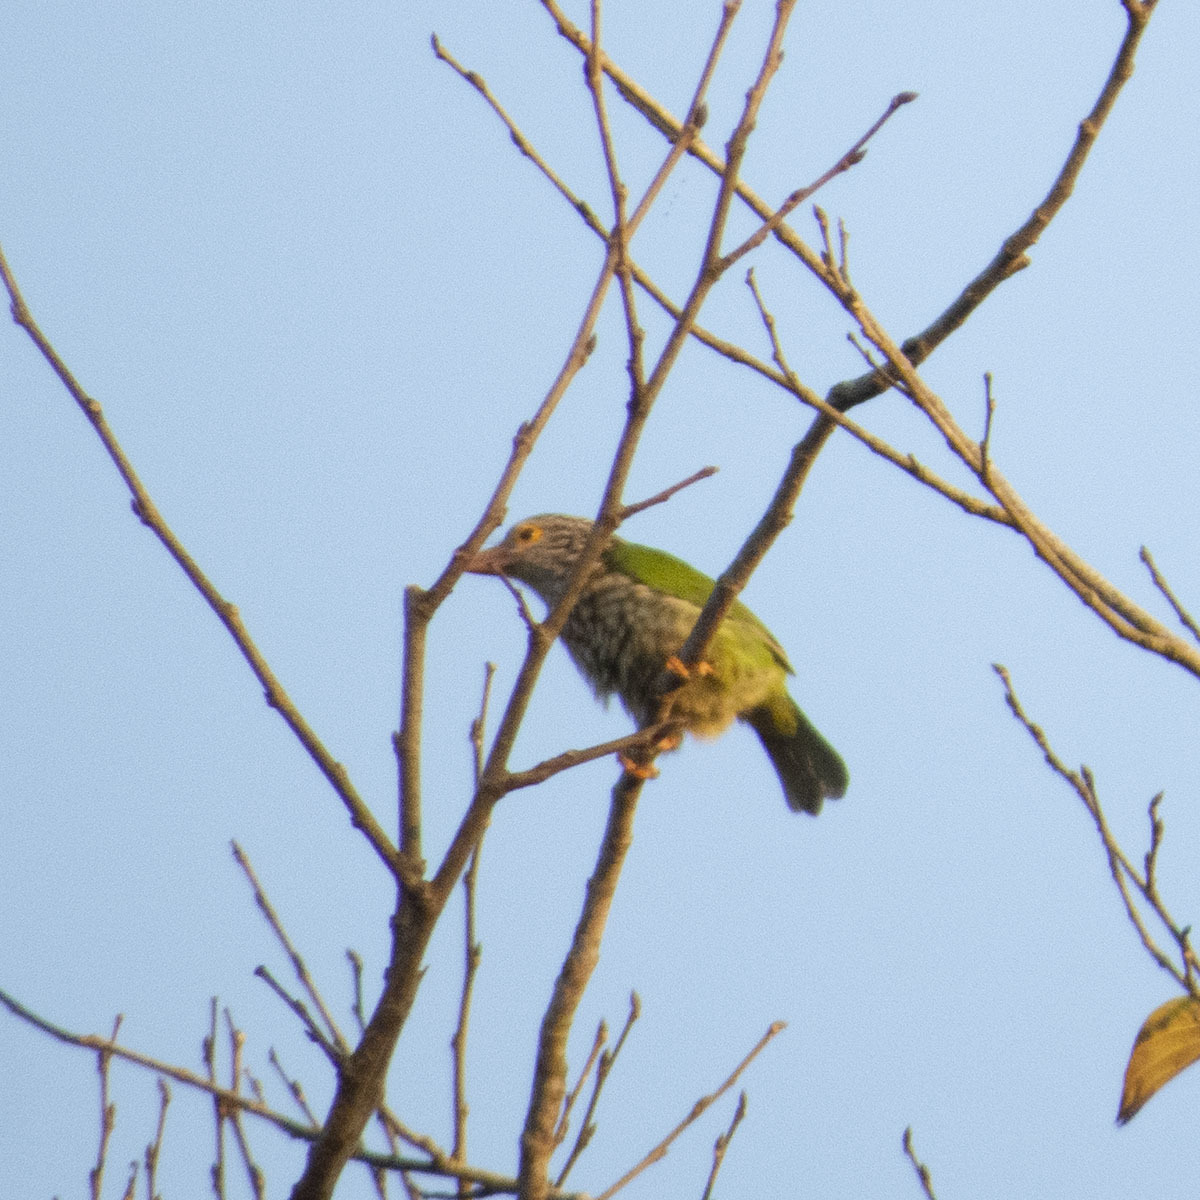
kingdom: Animalia
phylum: Chordata
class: Aves
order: Piciformes
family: Megalaimidae
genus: Psilopogon
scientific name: Psilopogon lineatus
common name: Lineated barbet
